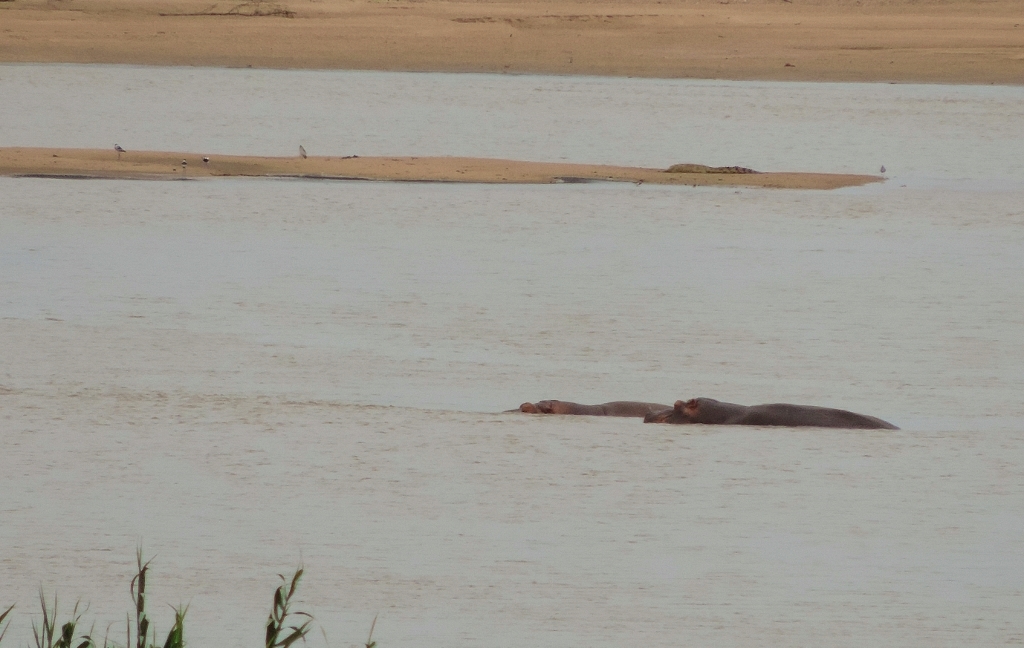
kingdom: Animalia
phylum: Chordata
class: Mammalia
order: Artiodactyla
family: Hippopotamidae
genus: Hippopotamus
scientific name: Hippopotamus amphibius
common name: Common hippopotamus
